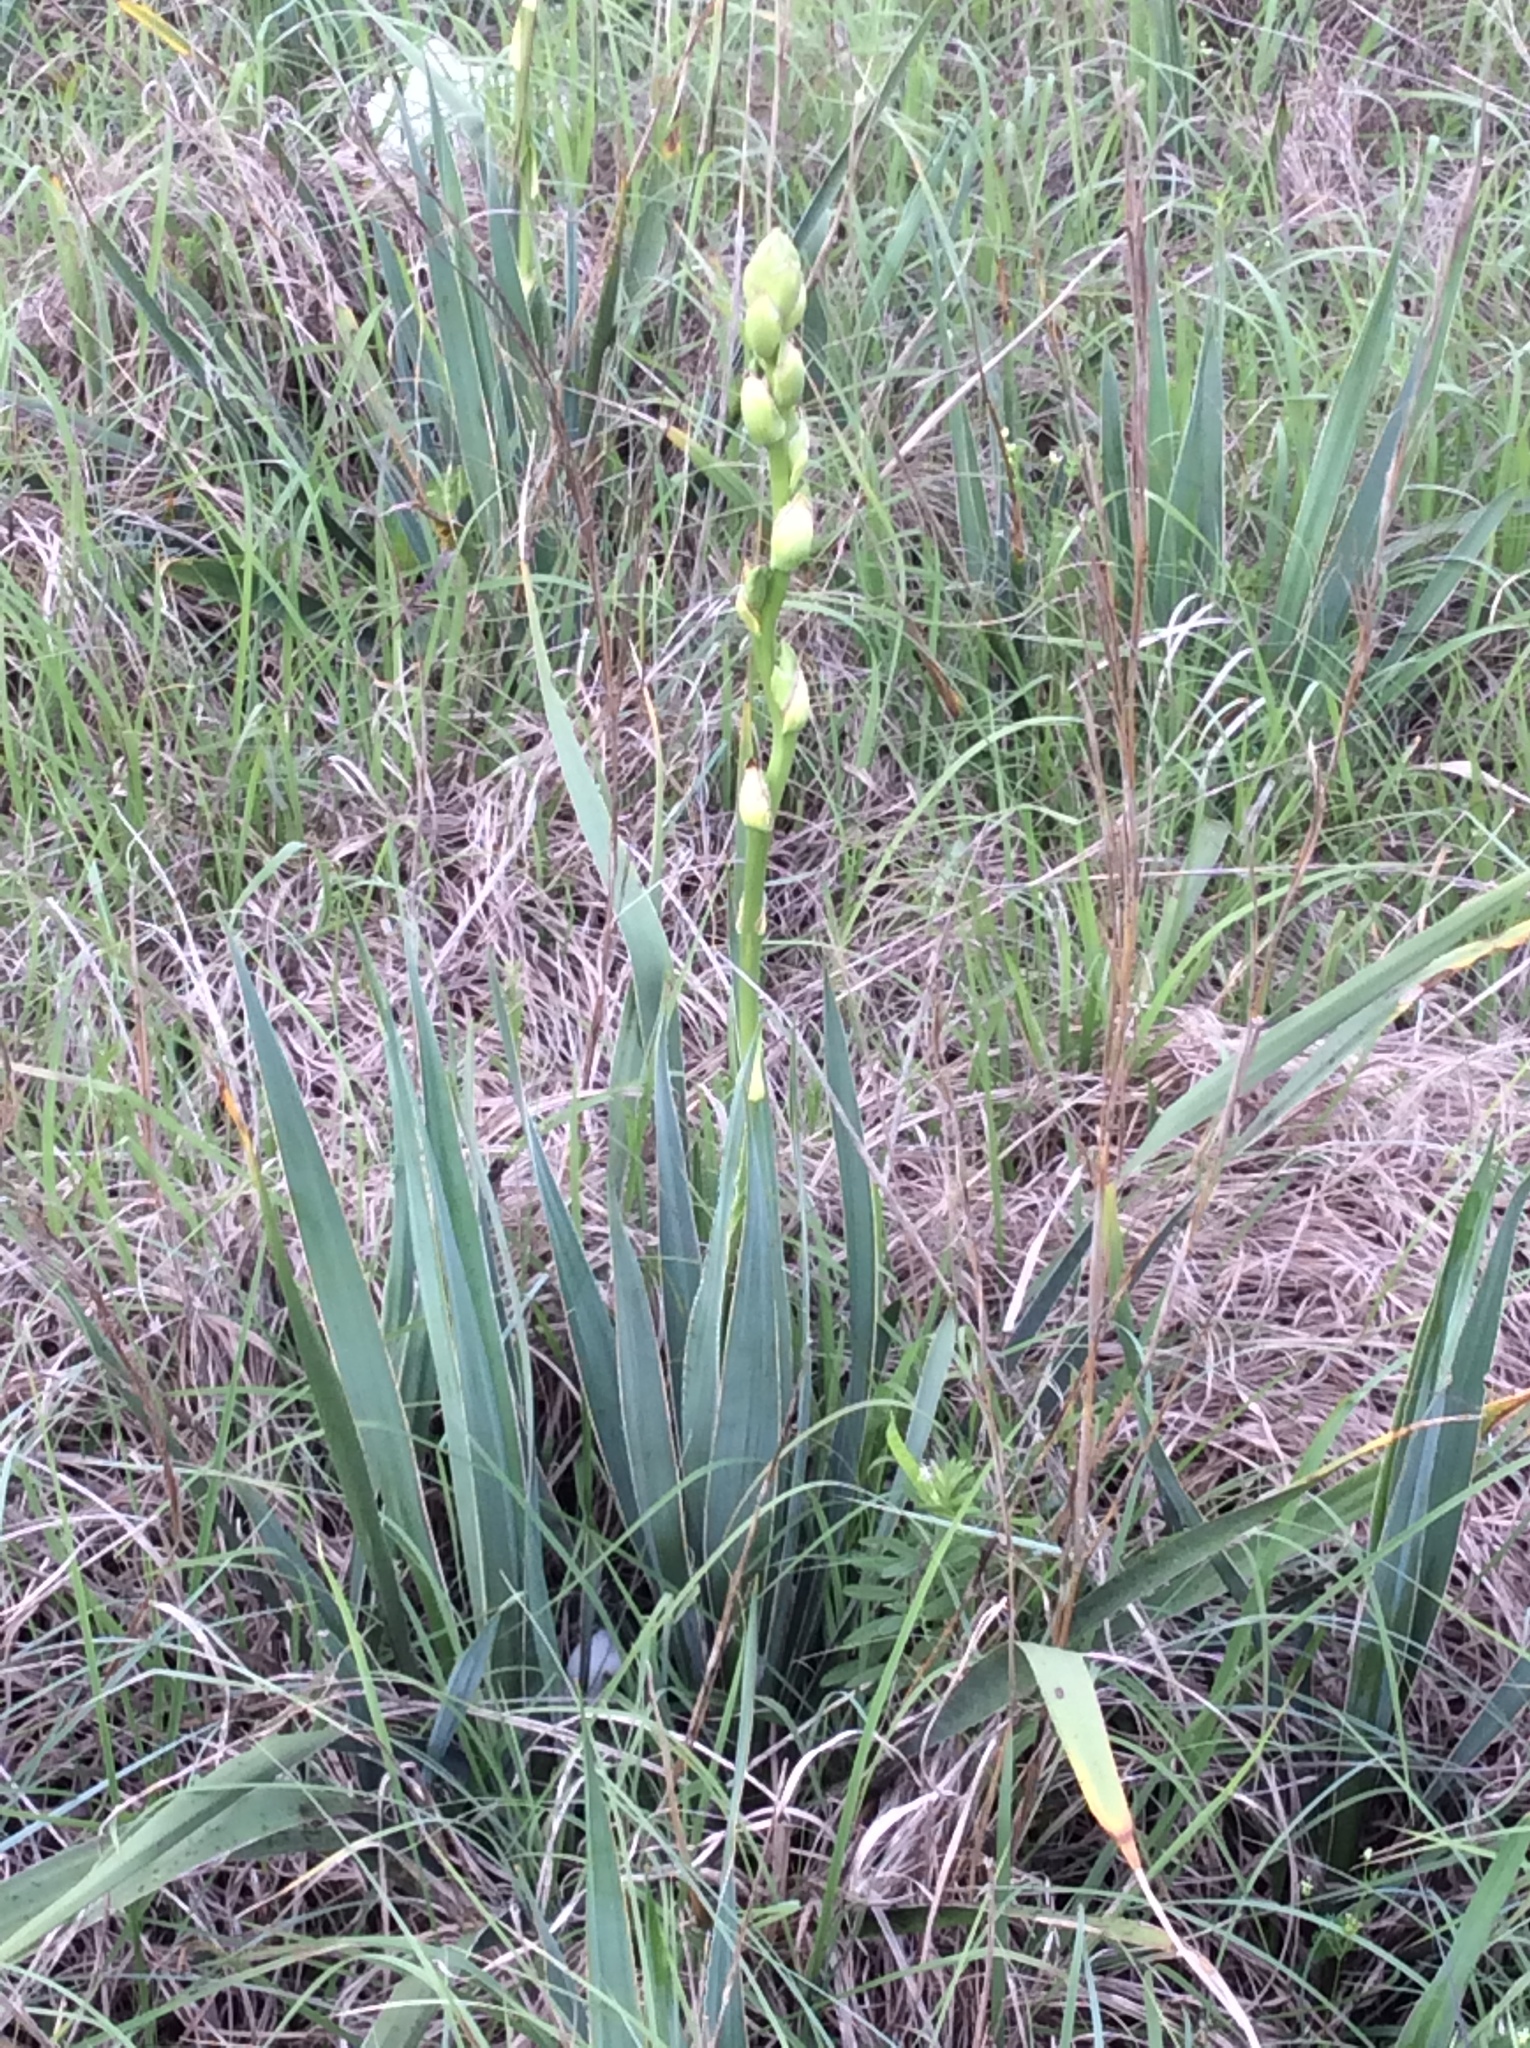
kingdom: Plantae
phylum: Tracheophyta
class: Liliopsida
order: Asparagales
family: Asparagaceae
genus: Yucca
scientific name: Yucca arkansana
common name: Arkansas yucca
